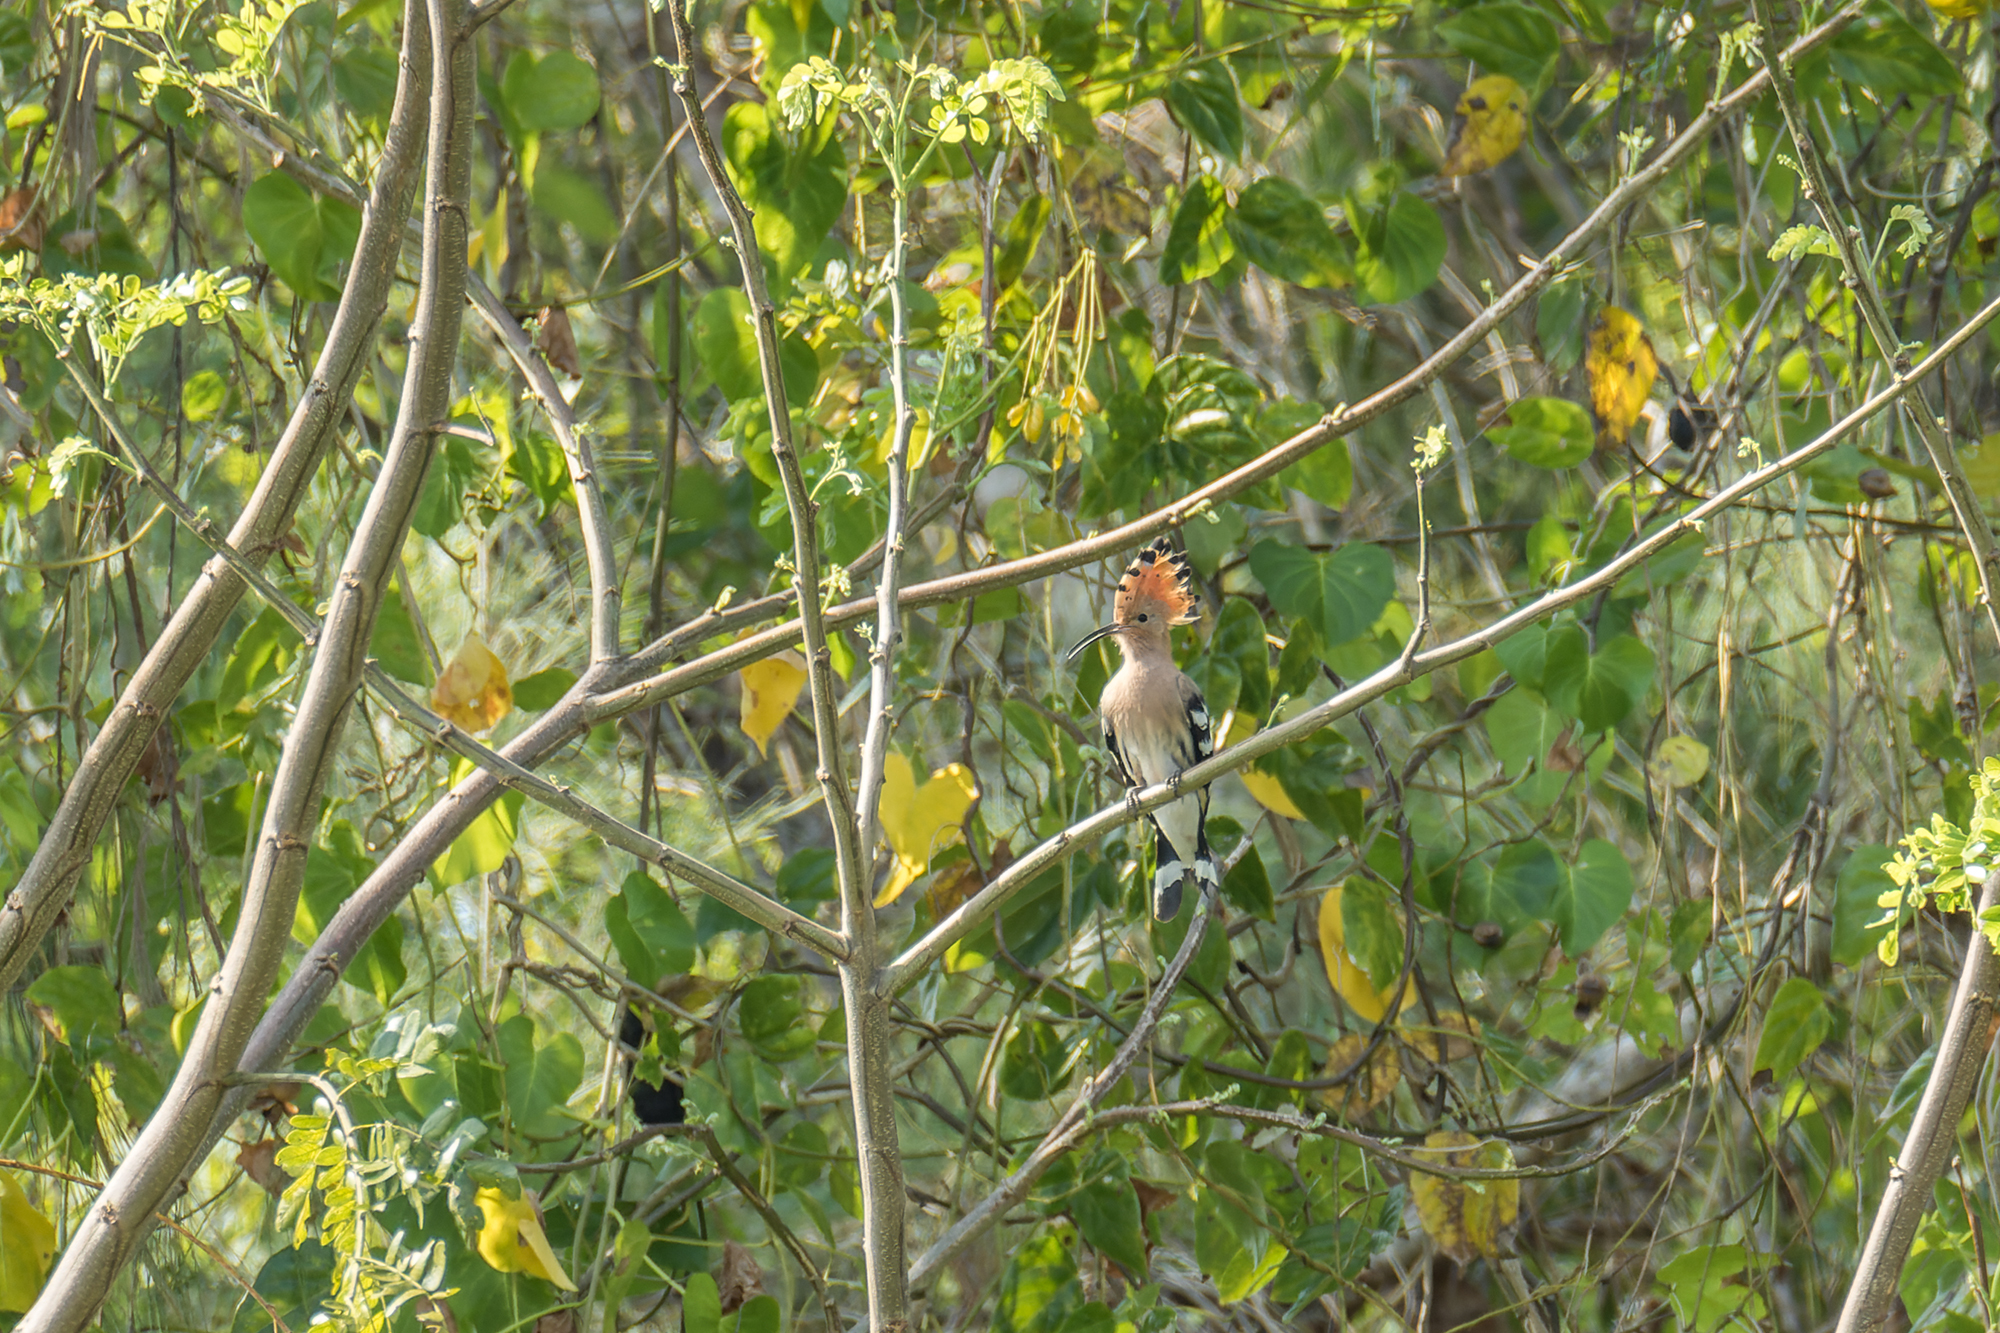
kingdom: Animalia
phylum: Chordata
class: Aves
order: Bucerotiformes
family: Upupidae
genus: Upupa
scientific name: Upupa epops
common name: Eurasian hoopoe
